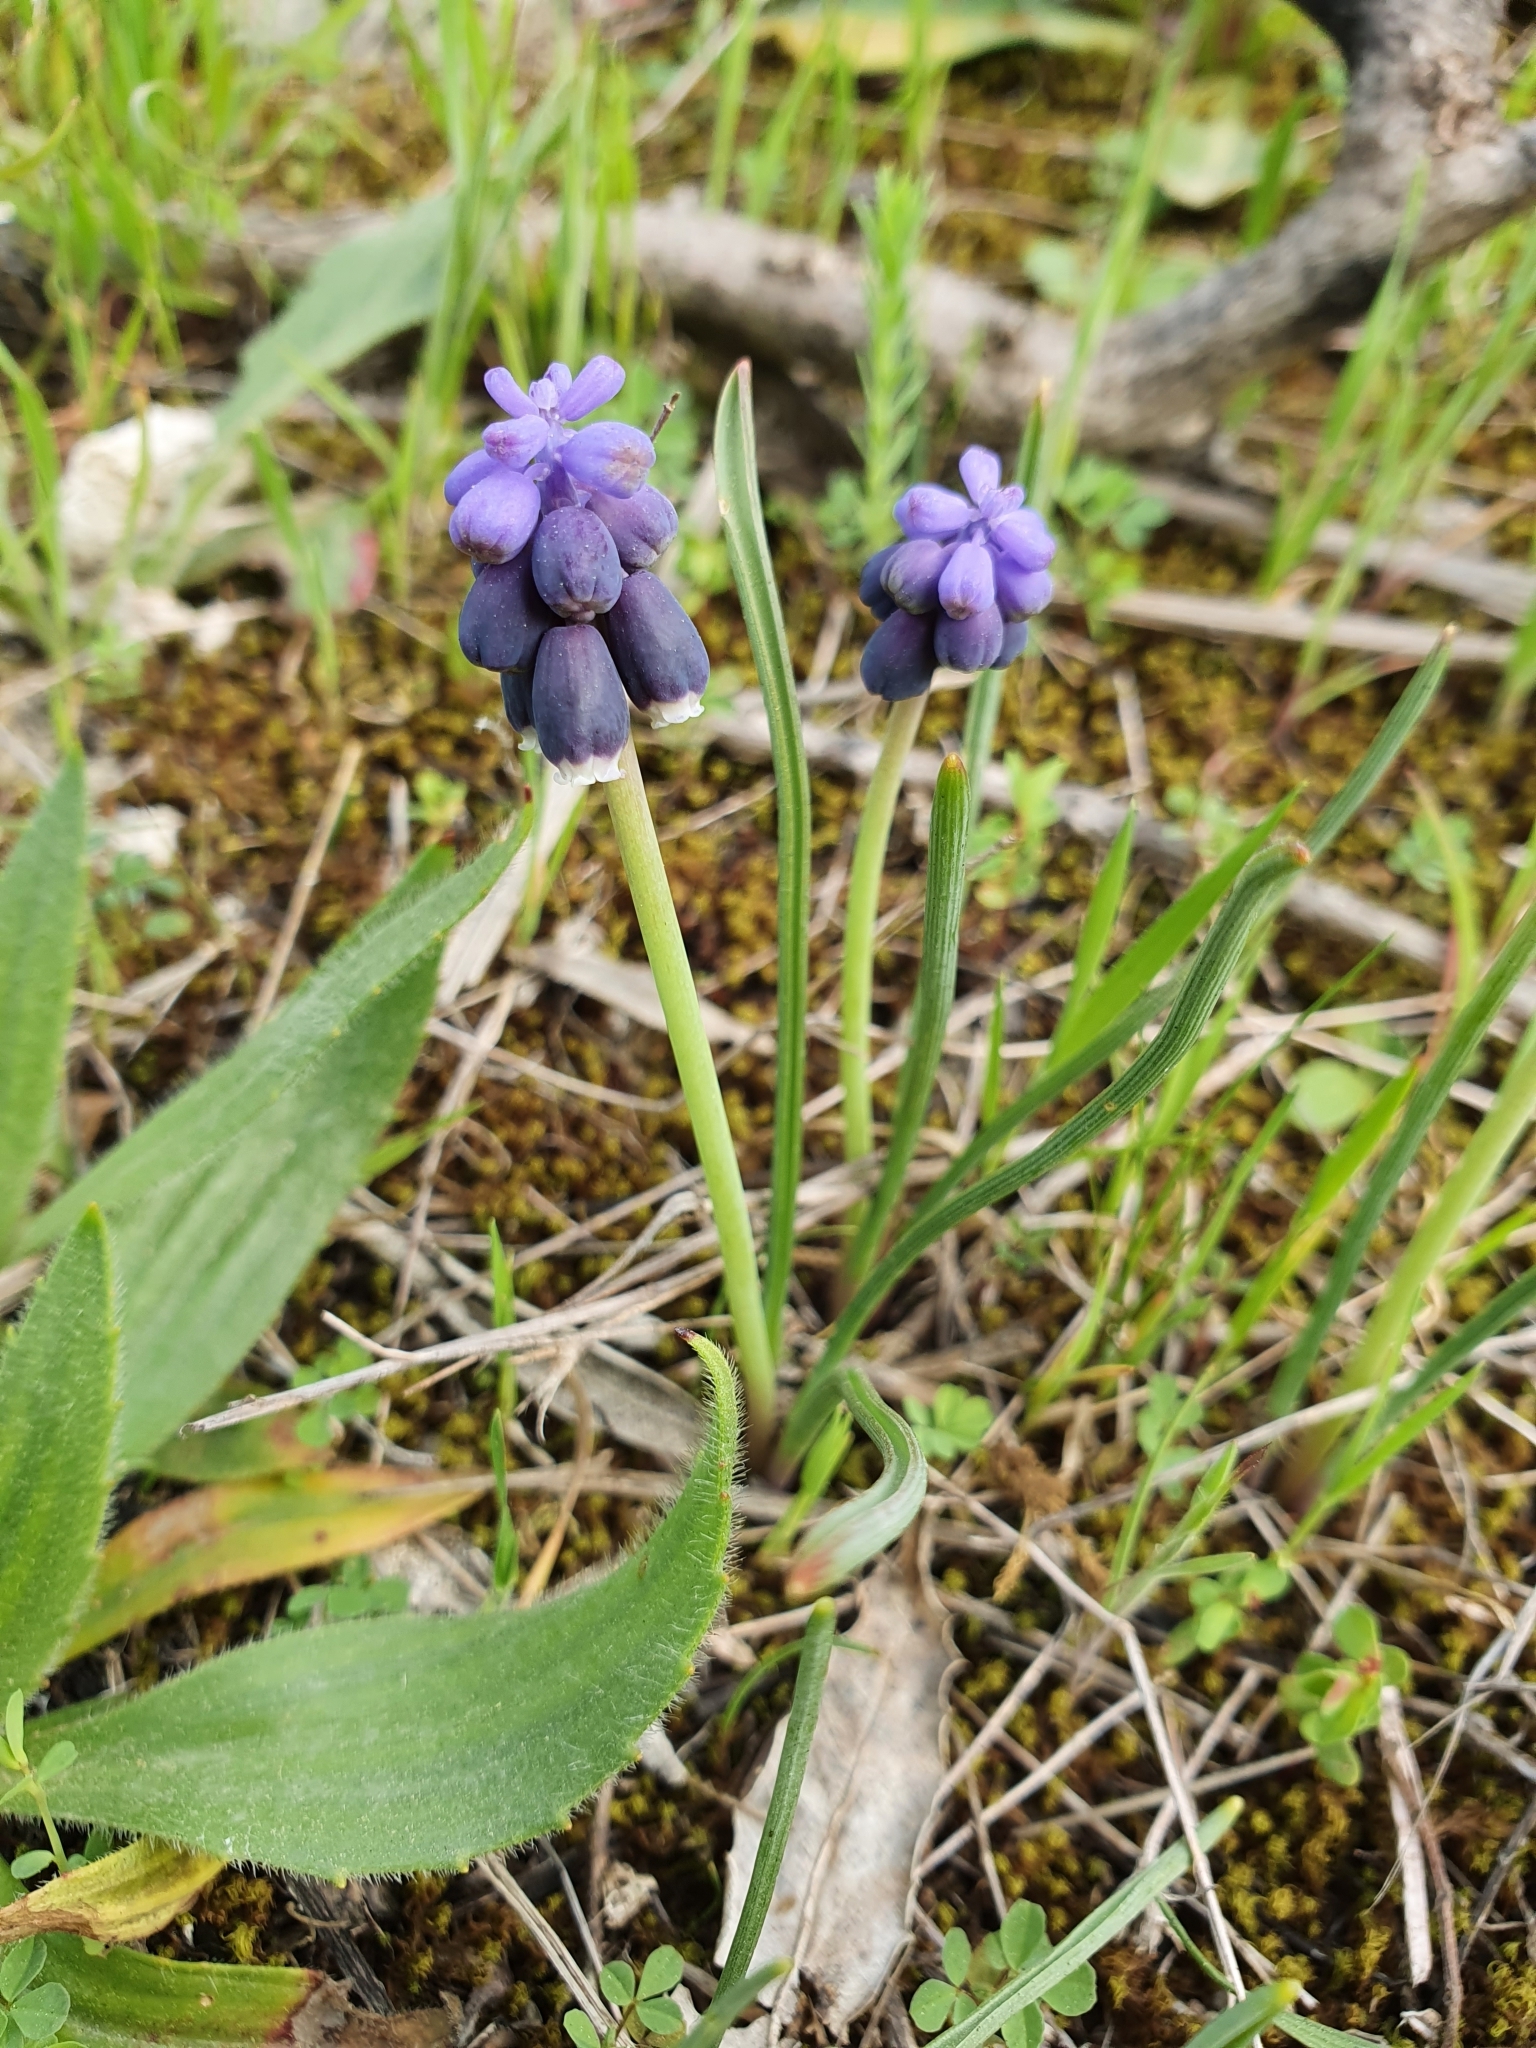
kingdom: Plantae
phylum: Tracheophyta
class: Liliopsida
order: Asparagales
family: Asparagaceae
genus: Muscari
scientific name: Muscari neglectum
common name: Grape-hyacinth
